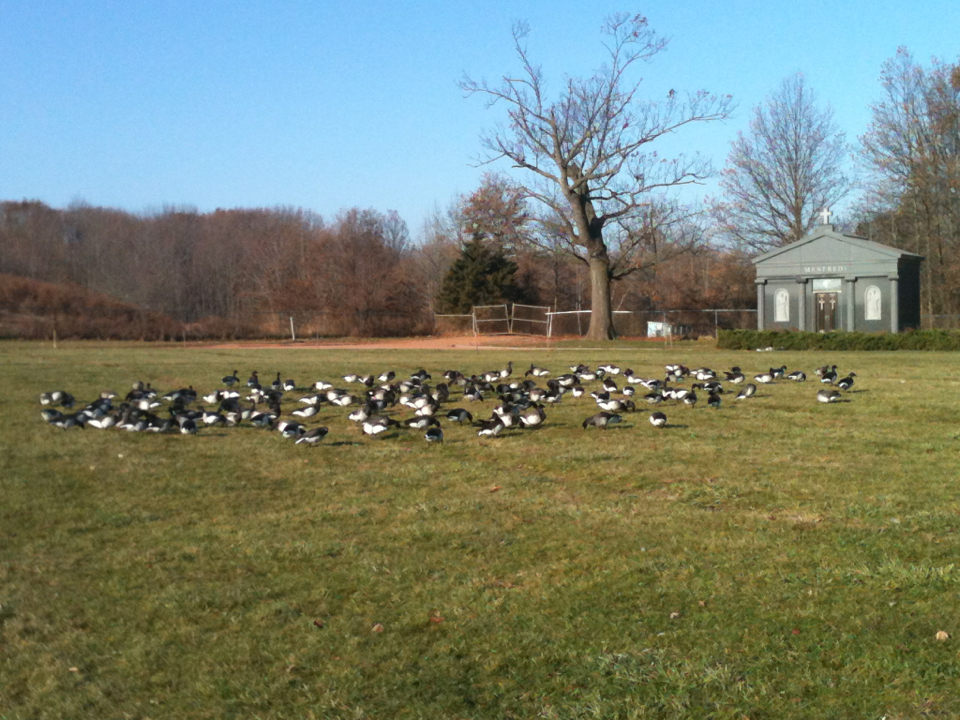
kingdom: Animalia
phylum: Chordata
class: Aves
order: Anseriformes
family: Anatidae
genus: Branta
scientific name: Branta bernicla
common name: Brant goose
